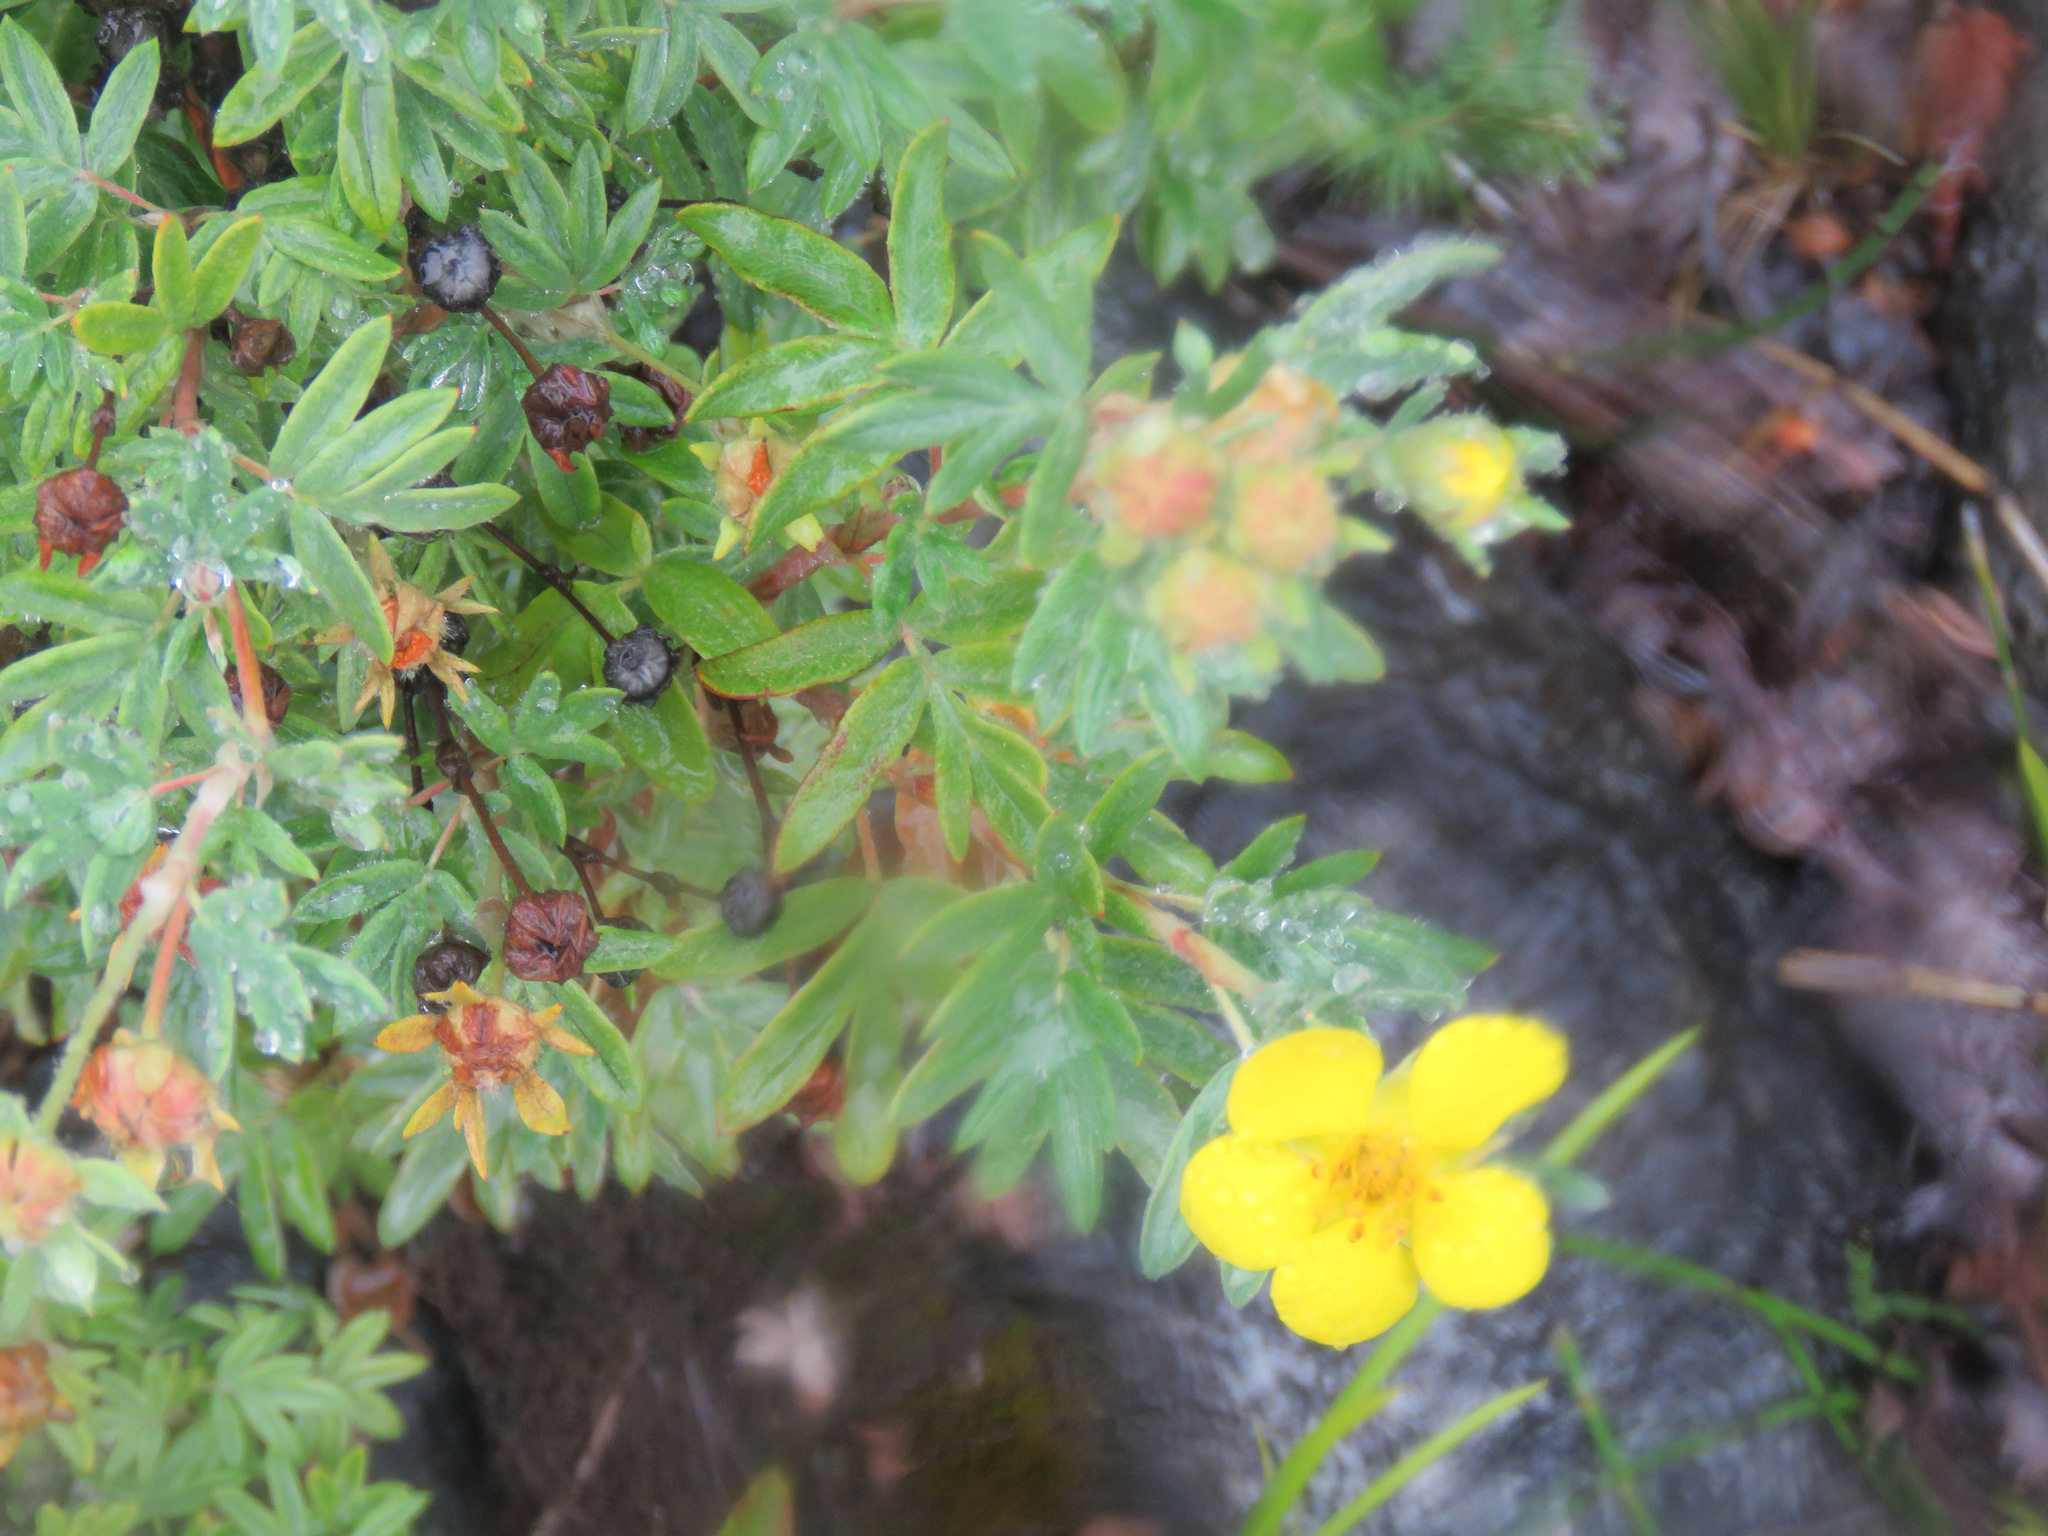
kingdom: Plantae
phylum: Tracheophyta
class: Magnoliopsida
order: Rosales
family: Rosaceae
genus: Dasiphora
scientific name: Dasiphora fruticosa
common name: Shrubby cinquefoil
